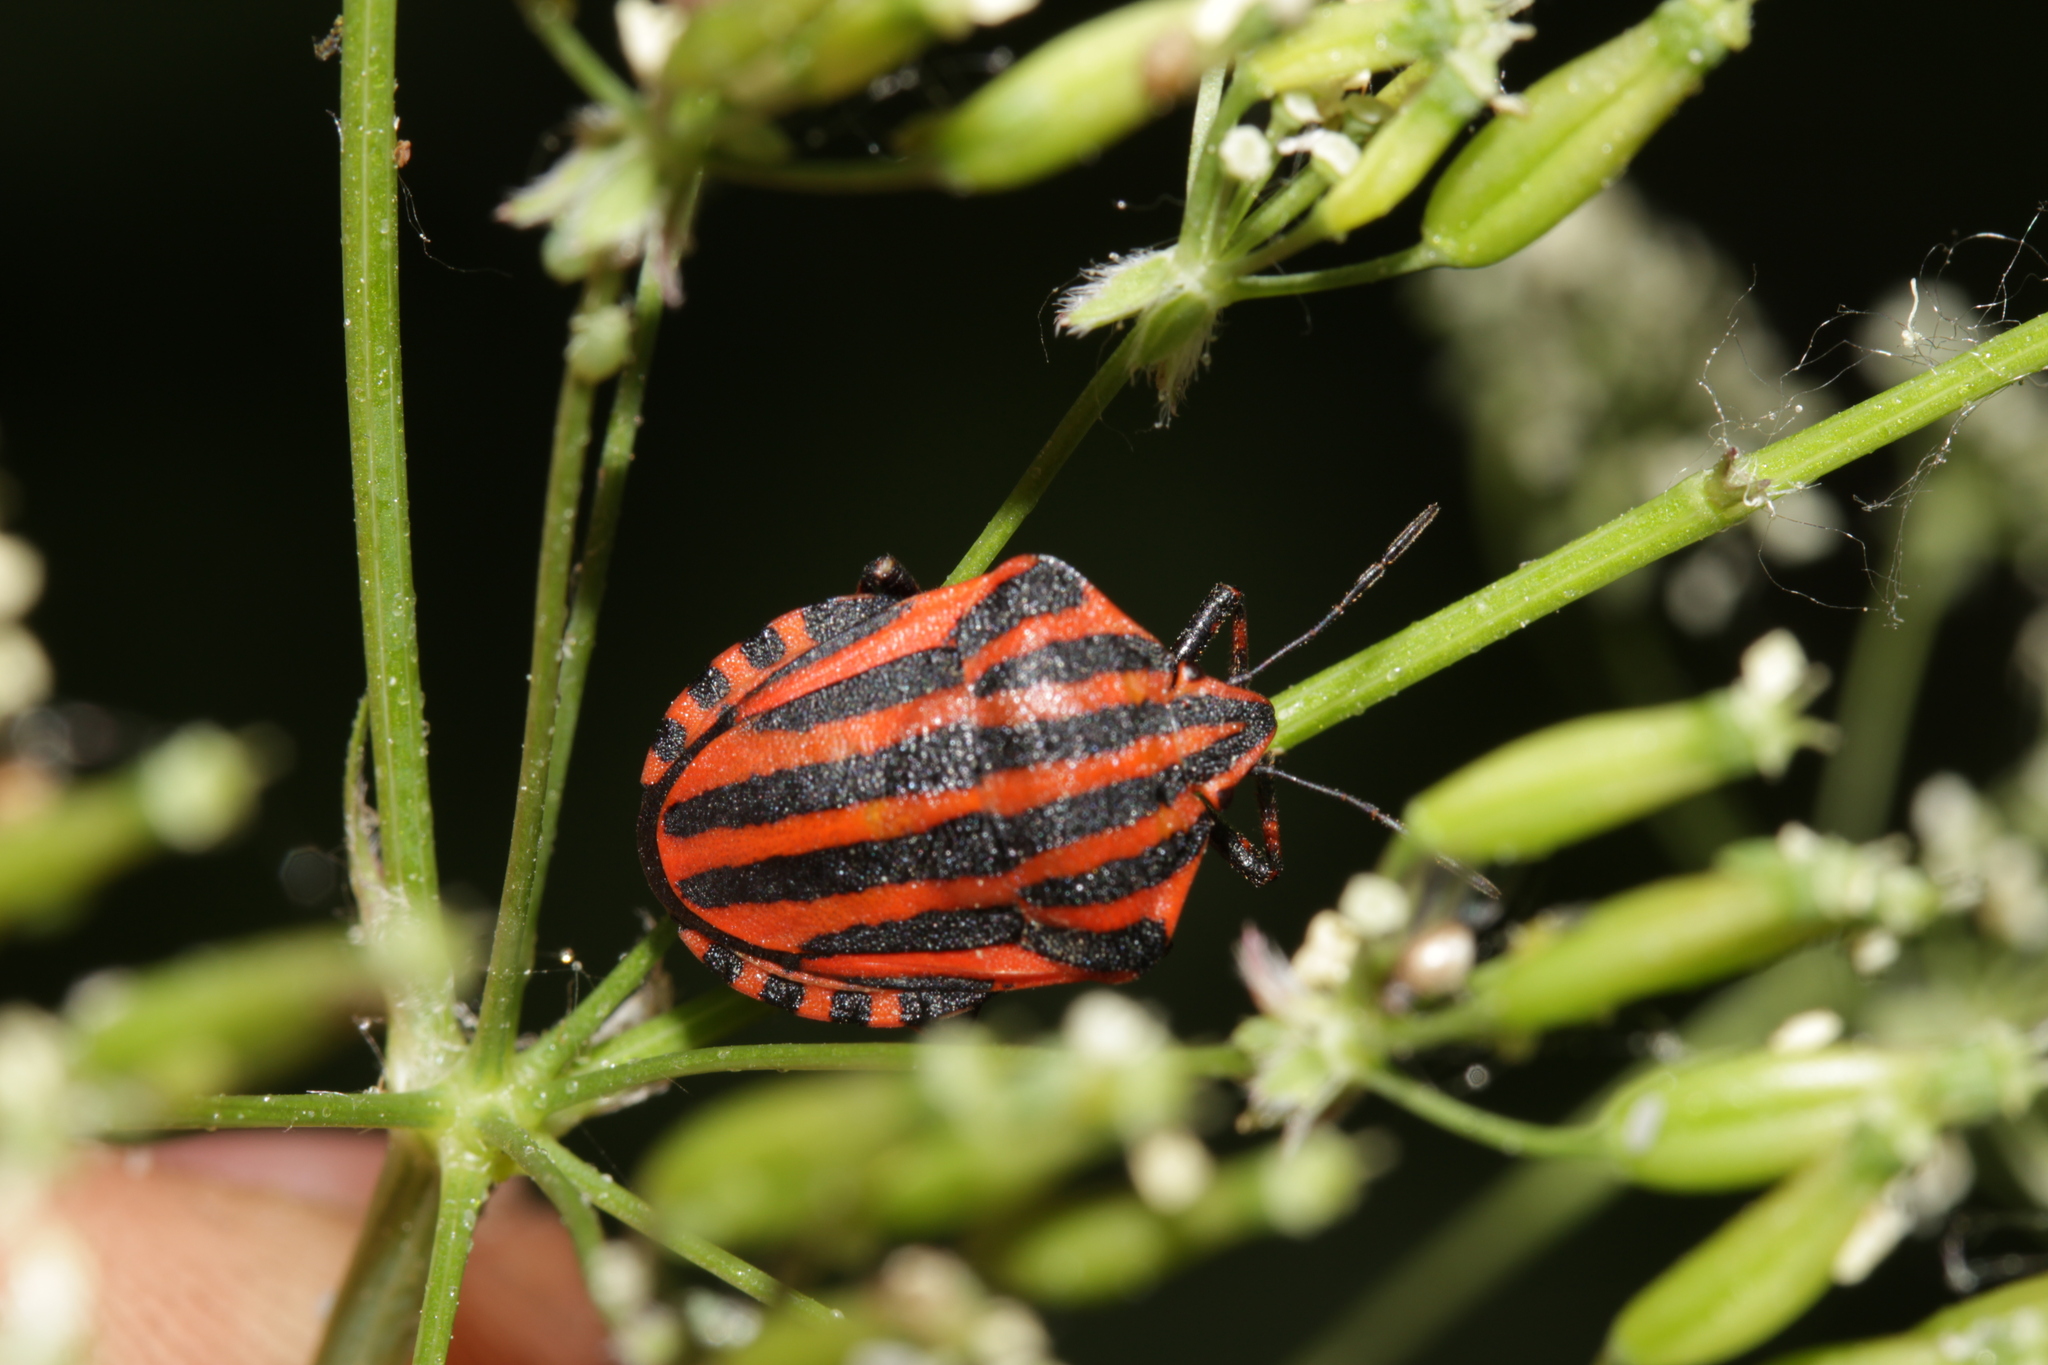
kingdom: Animalia
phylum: Arthropoda
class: Insecta
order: Hemiptera
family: Pentatomidae
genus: Graphosoma
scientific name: Graphosoma italicum
